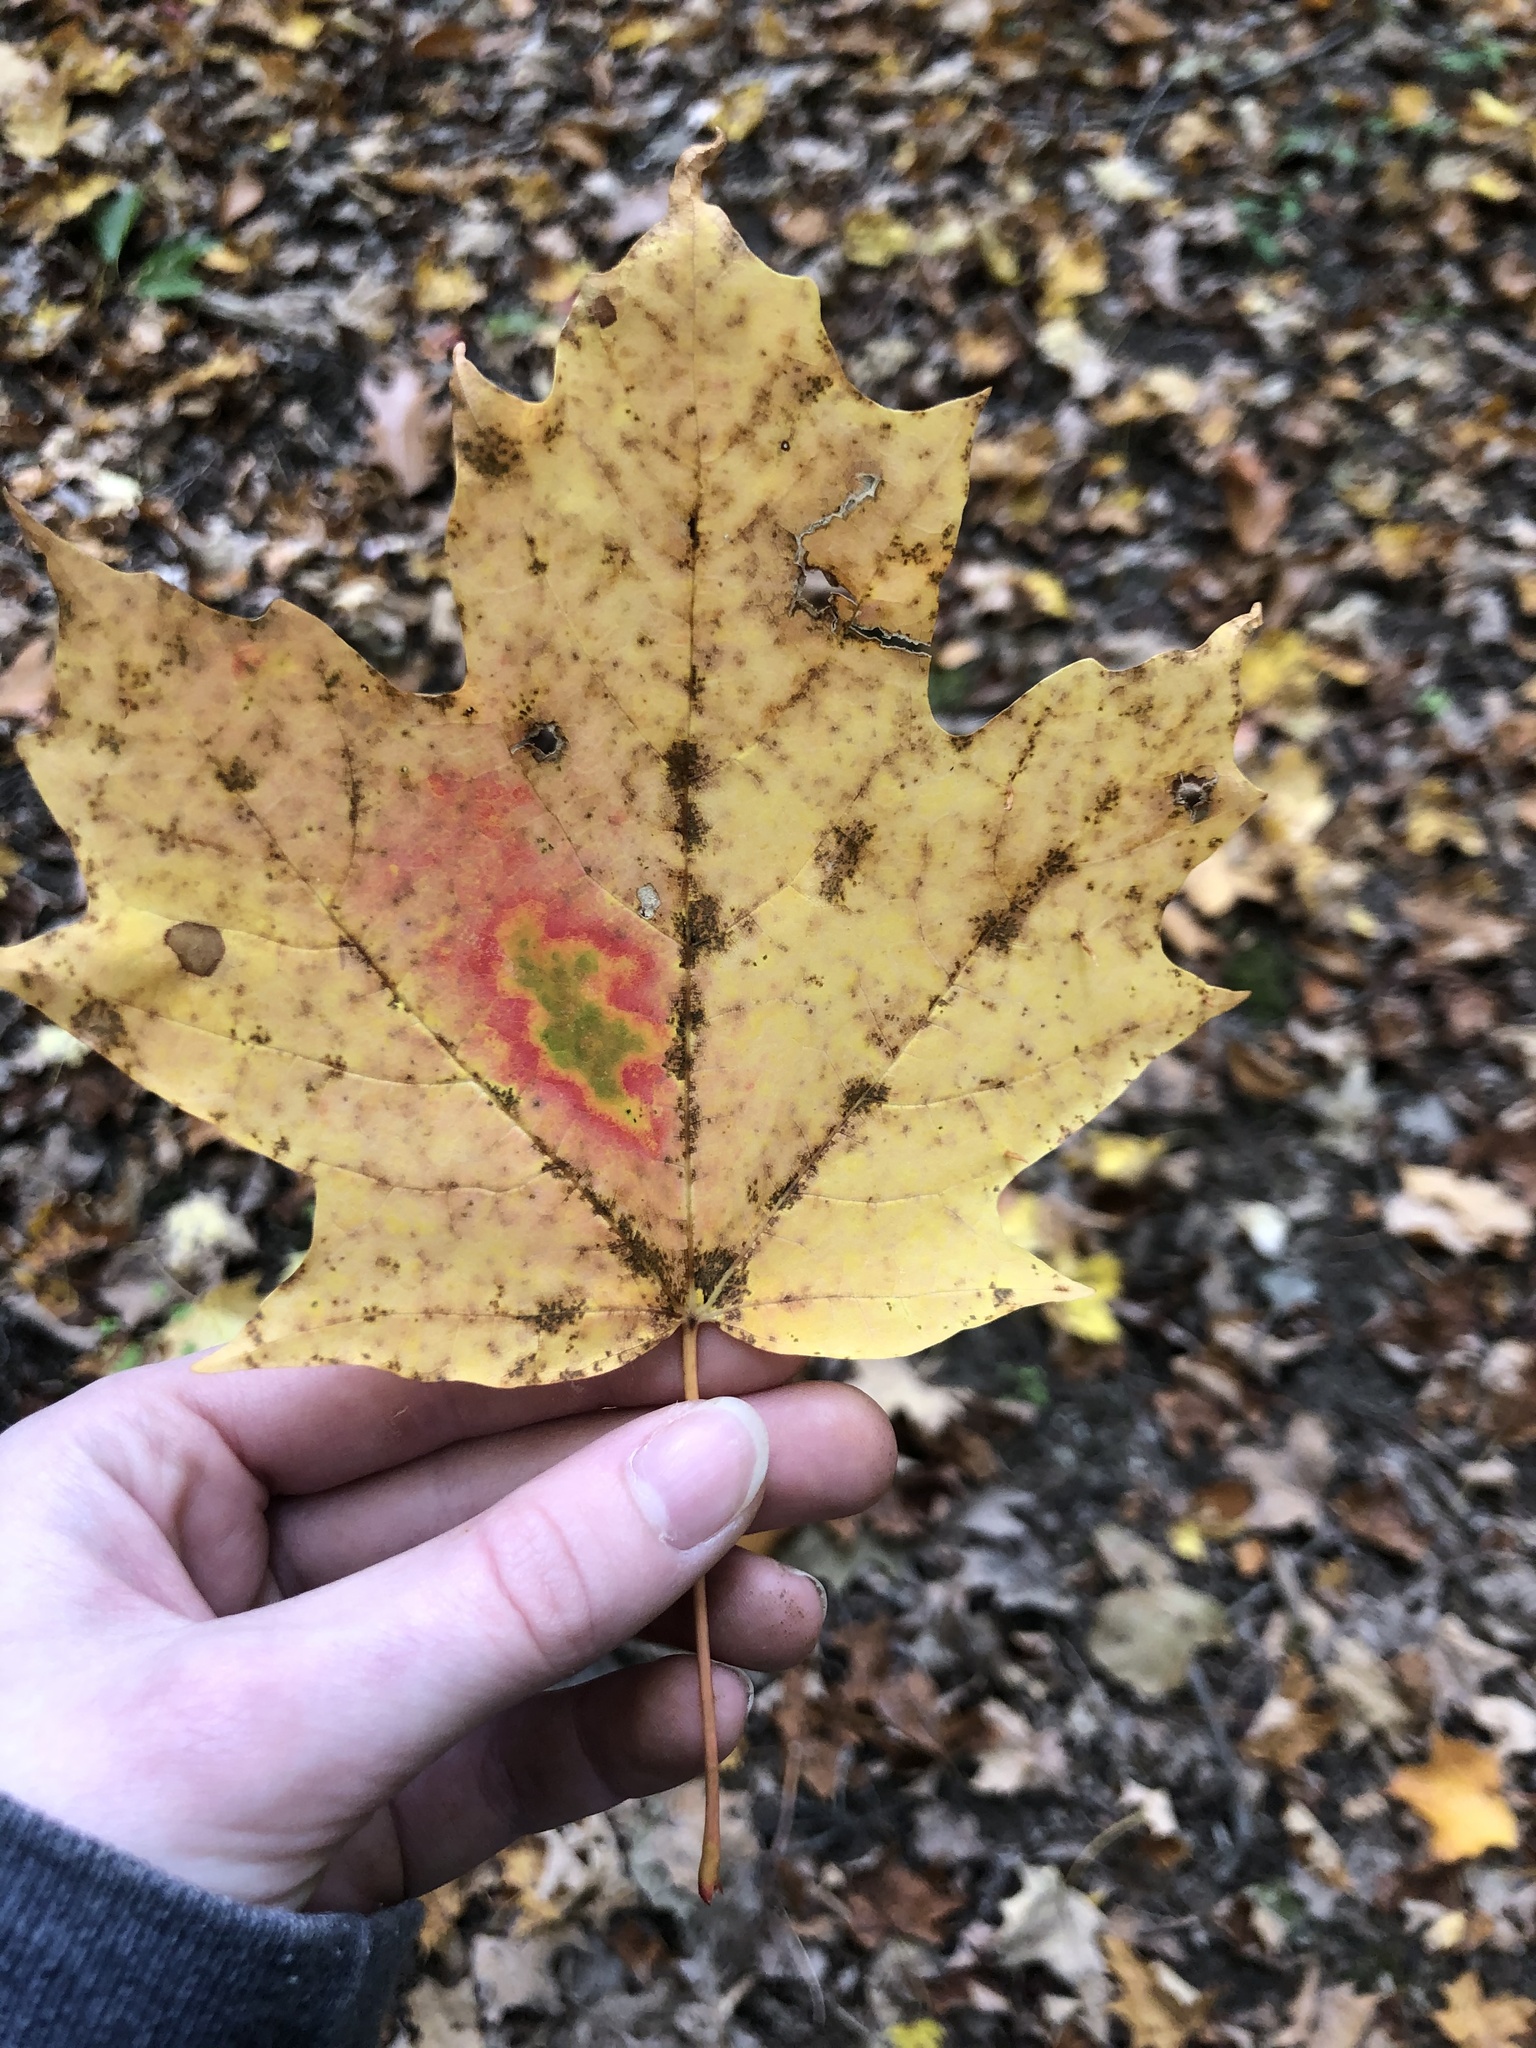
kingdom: Plantae
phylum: Tracheophyta
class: Magnoliopsida
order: Sapindales
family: Sapindaceae
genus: Acer
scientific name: Acer saccharum
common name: Sugar maple
